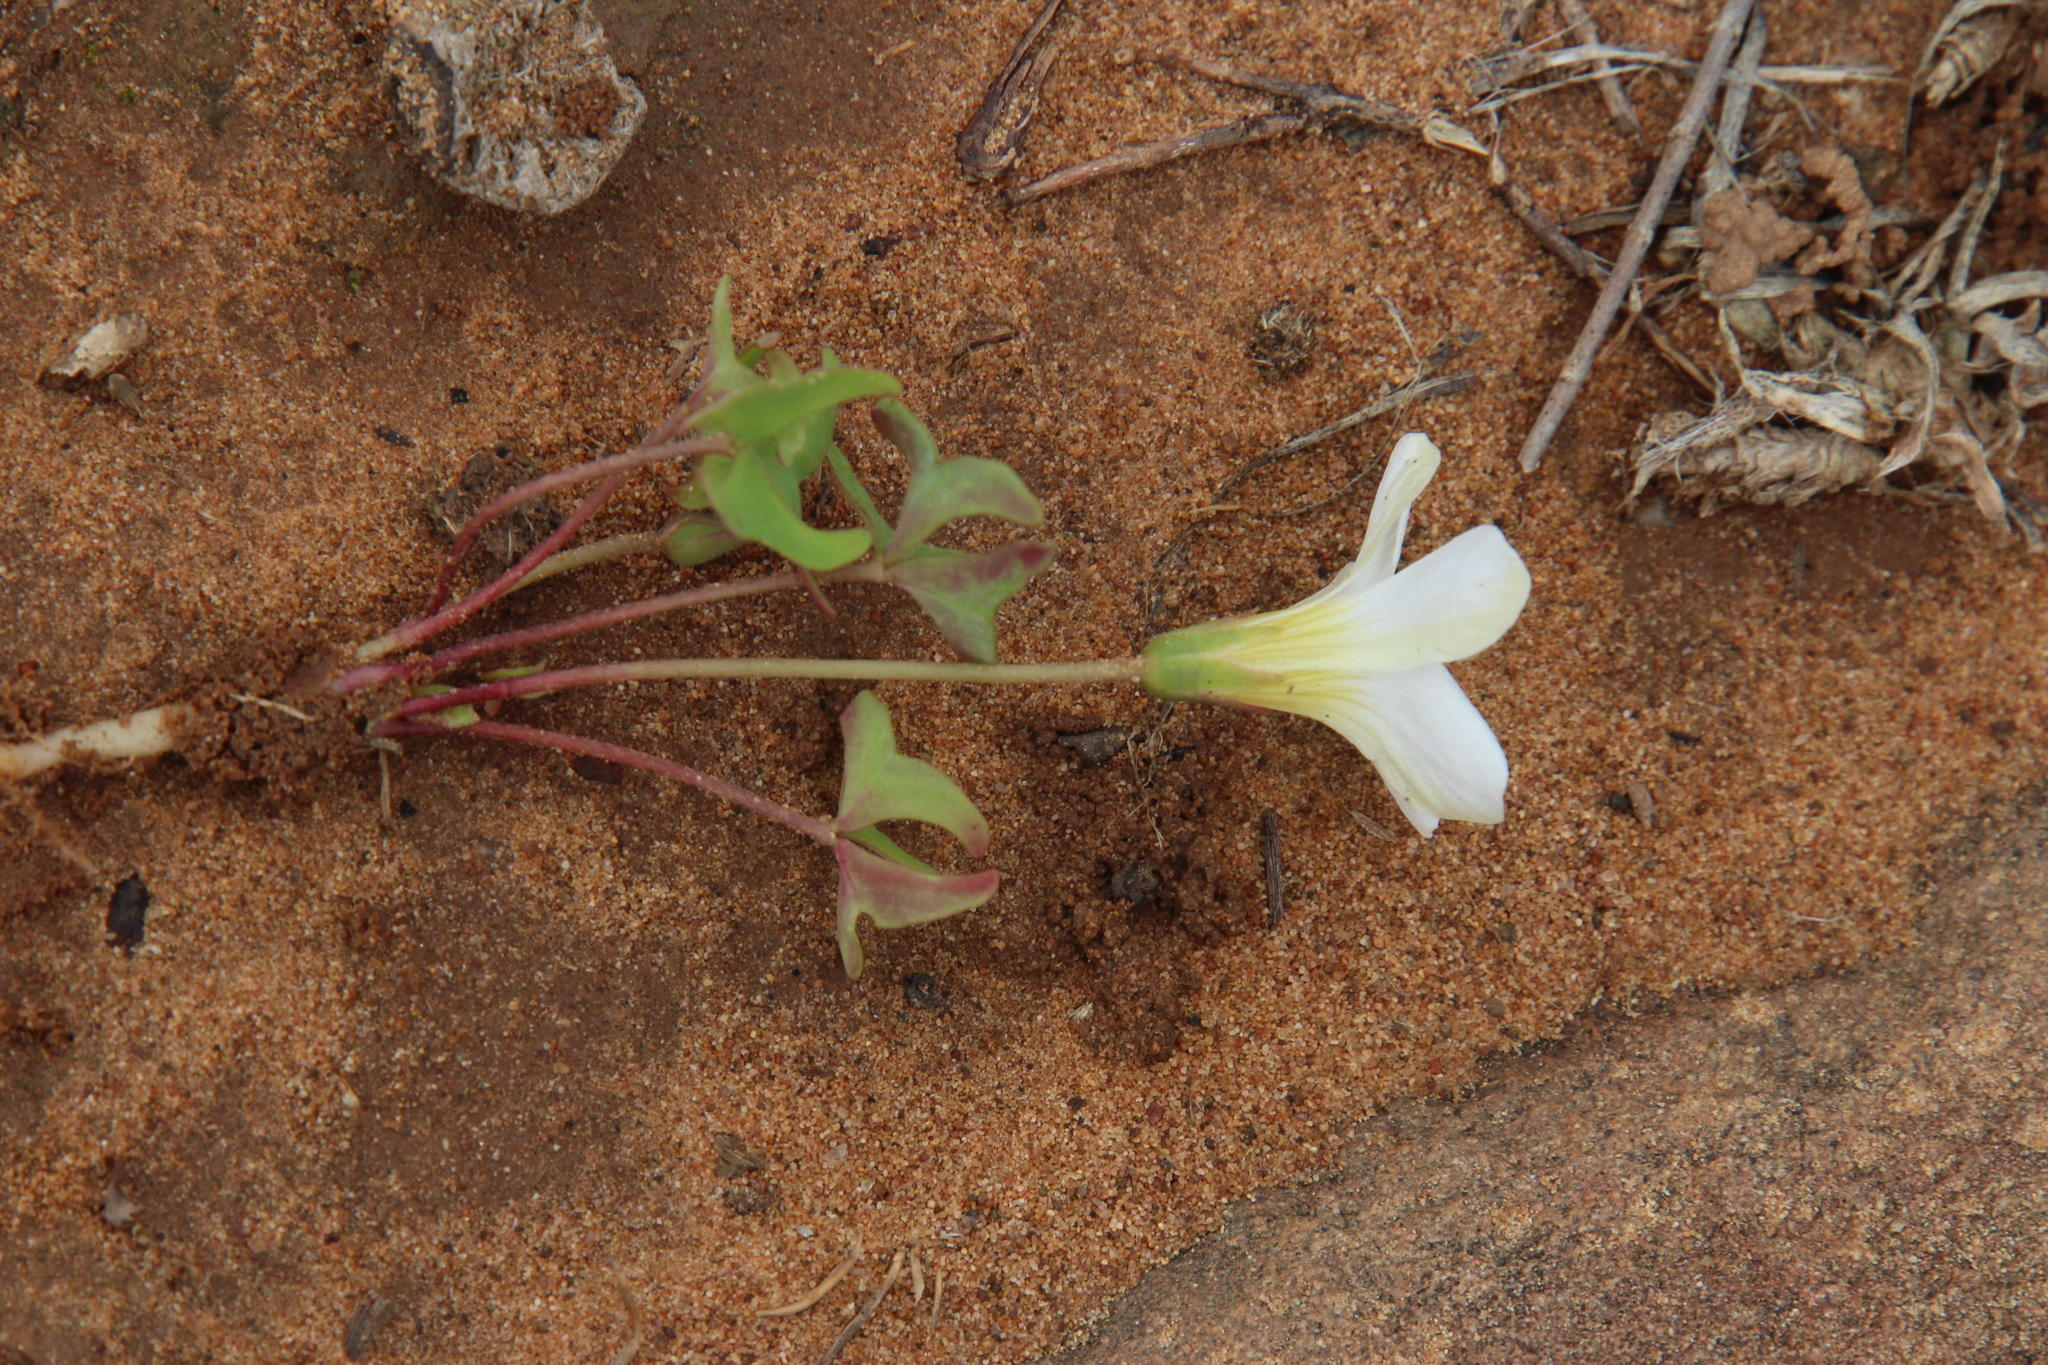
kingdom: Plantae
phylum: Tracheophyta
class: Magnoliopsida
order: Oxalidales
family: Oxalidaceae
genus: Oxalis
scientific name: Oxalis obliquifolia
